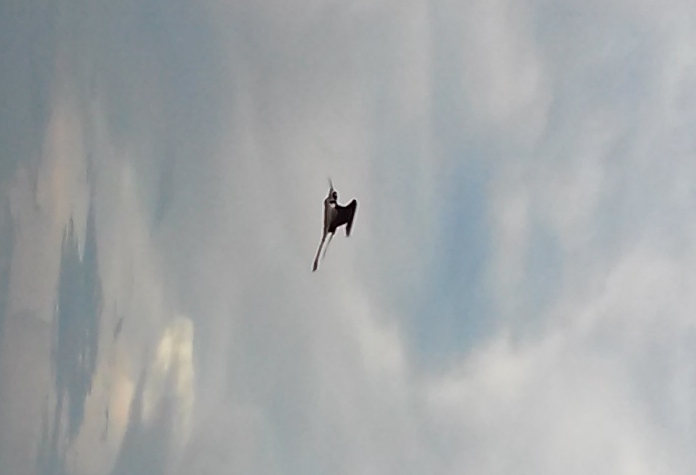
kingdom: Animalia
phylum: Chordata
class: Aves
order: Charadriiformes
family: Recurvirostridae
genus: Himantopus
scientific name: Himantopus mexicanus
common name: Black-necked stilt
